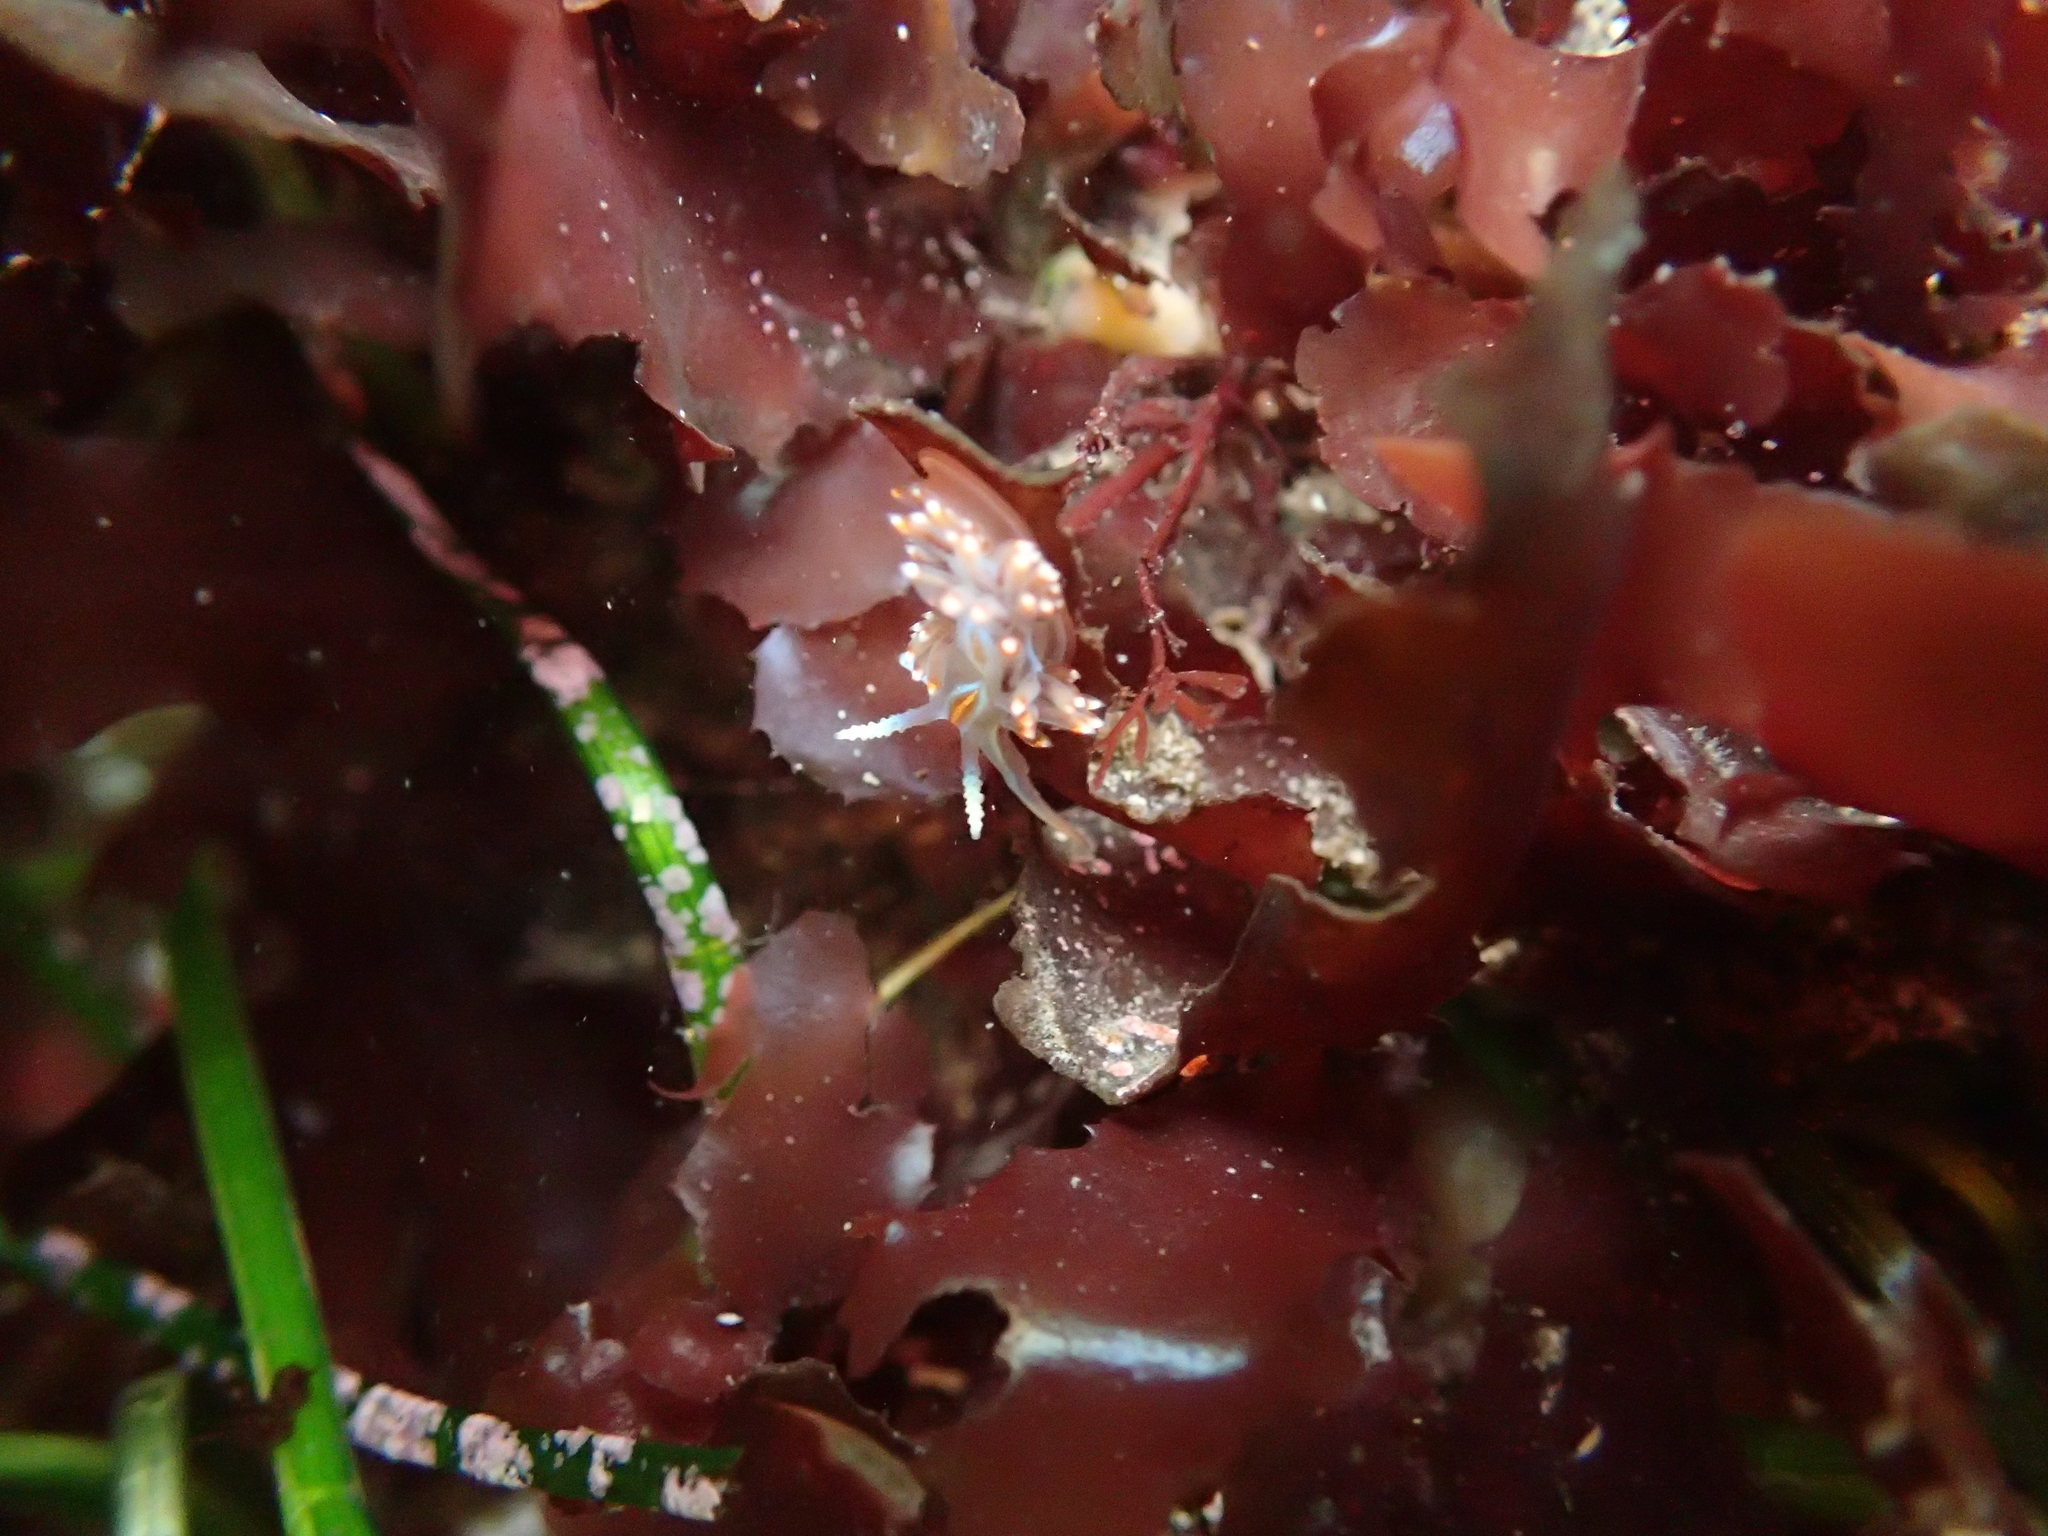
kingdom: Animalia
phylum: Mollusca
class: Gastropoda
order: Nudibranchia
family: Myrrhinidae
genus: Hermissenda
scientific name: Hermissenda opalescens
